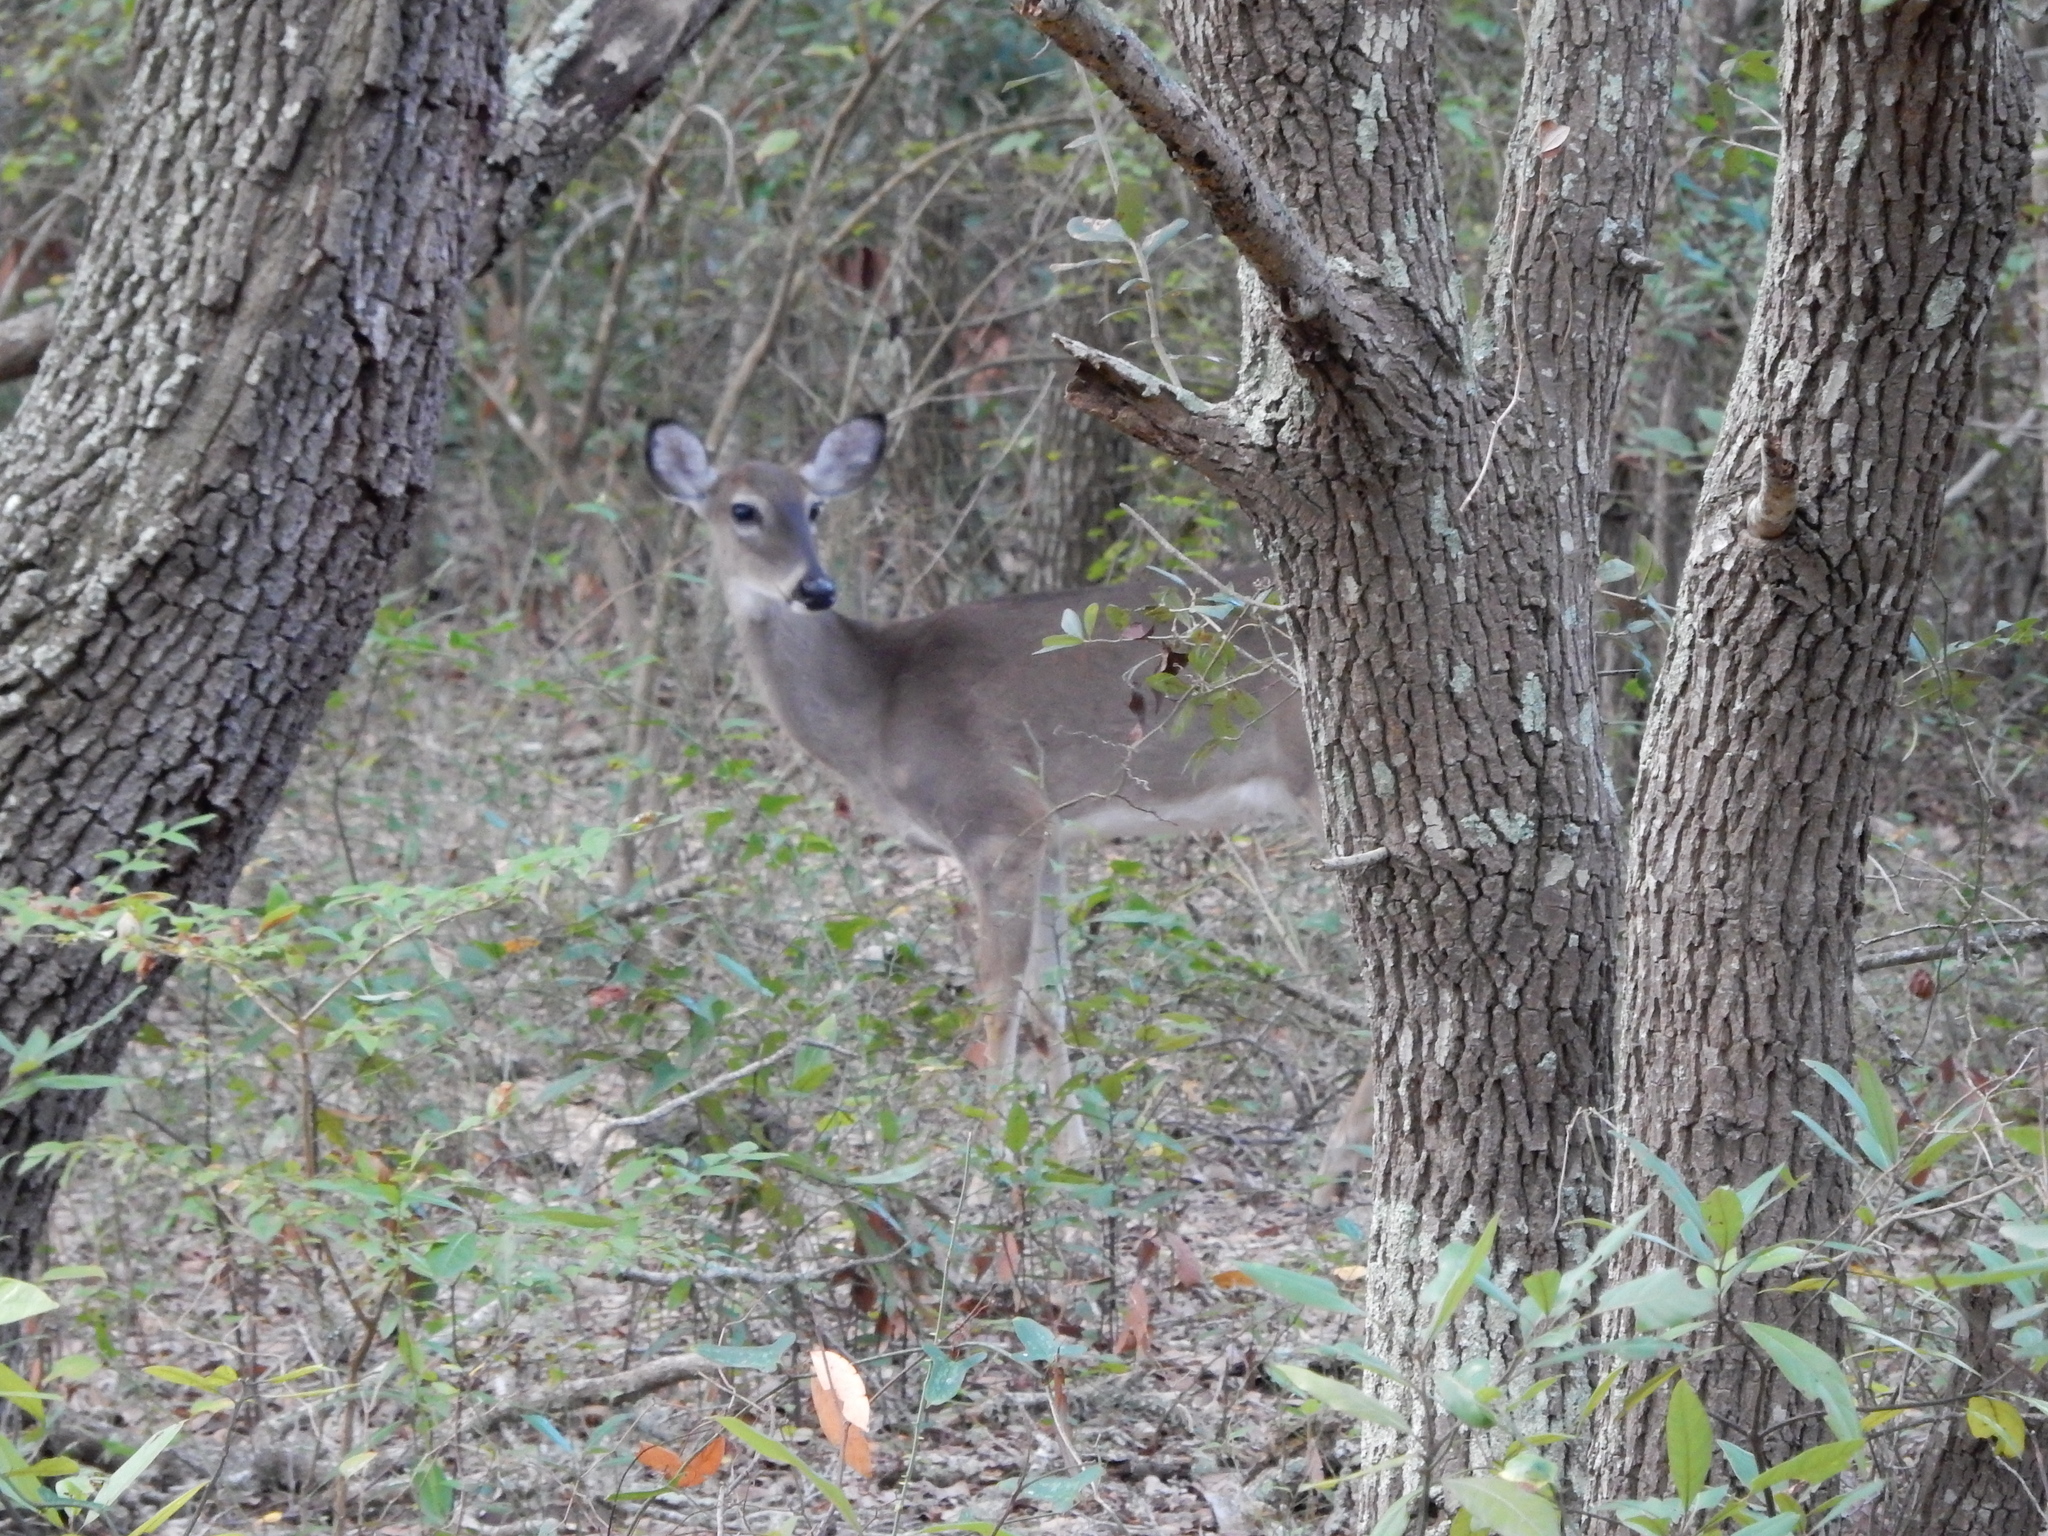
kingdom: Animalia
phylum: Chordata
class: Mammalia
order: Artiodactyla
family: Cervidae
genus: Odocoileus
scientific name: Odocoileus virginianus
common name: White-tailed deer
